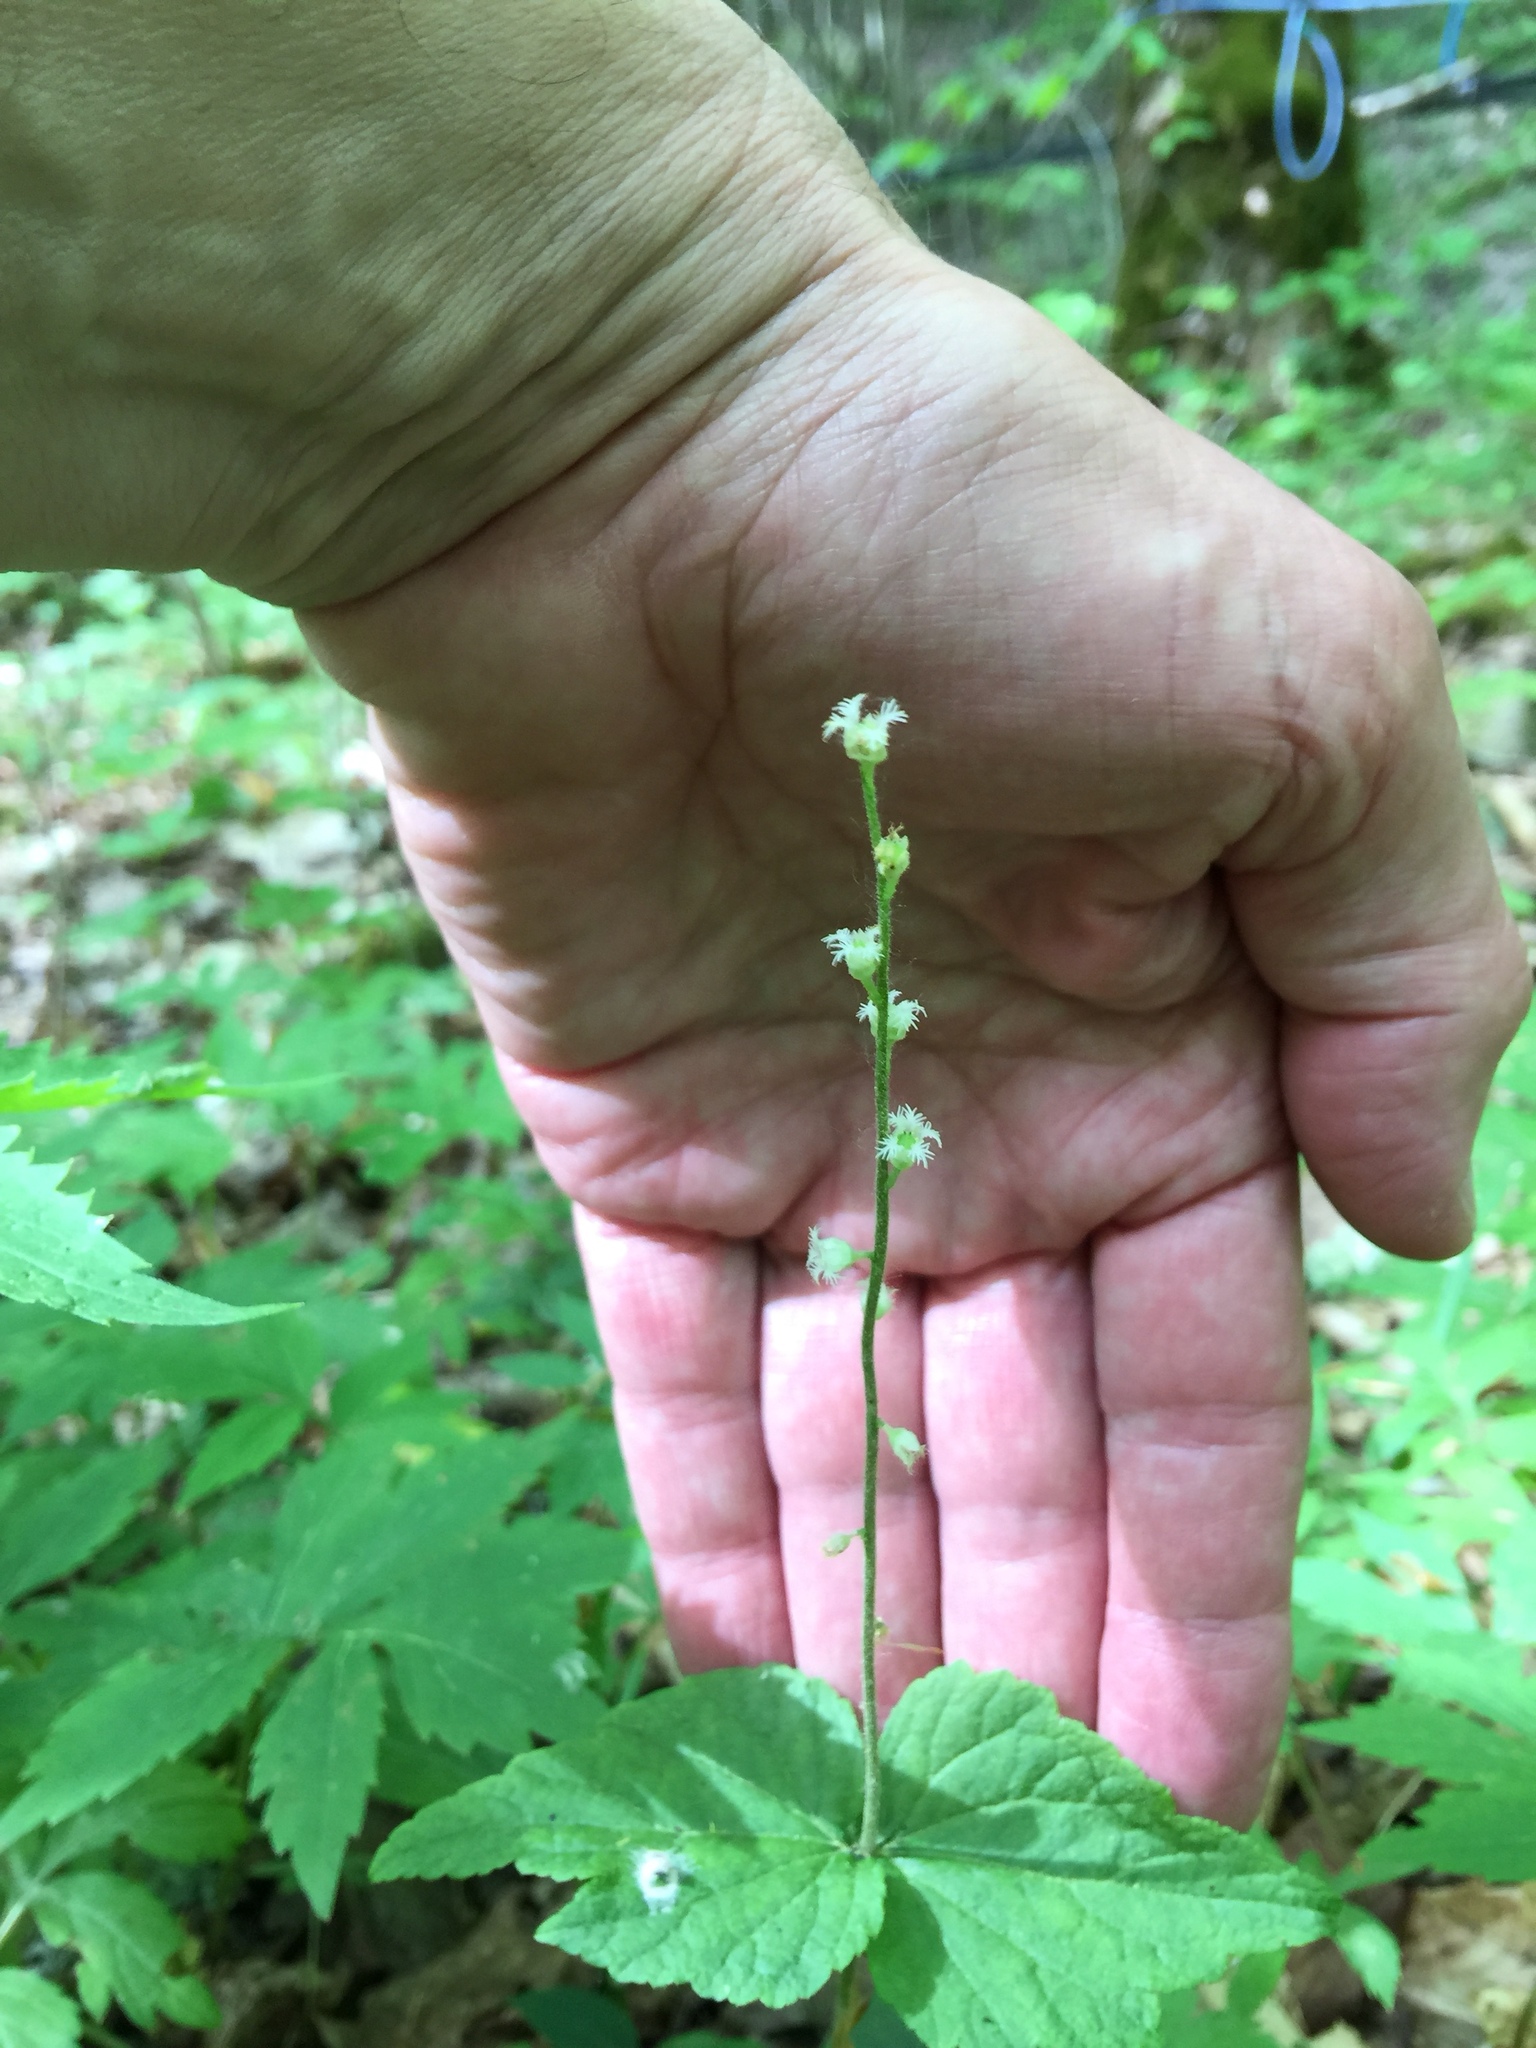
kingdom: Plantae
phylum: Tracheophyta
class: Magnoliopsida
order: Saxifragales
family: Saxifragaceae
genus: Mitella
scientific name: Mitella diphylla
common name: Coolwort
